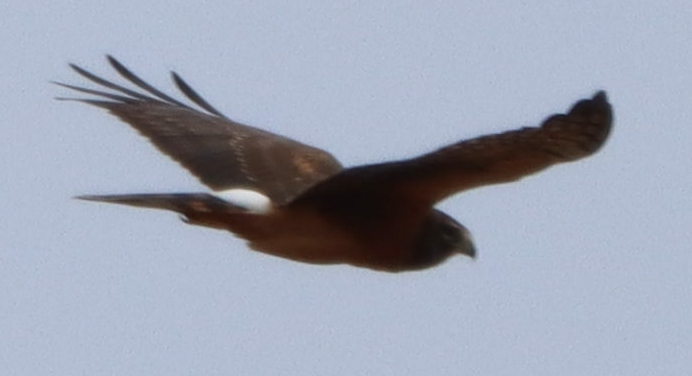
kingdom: Animalia
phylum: Chordata
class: Aves
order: Accipitriformes
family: Accipitridae
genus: Circus
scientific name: Circus cyaneus
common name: Hen harrier
